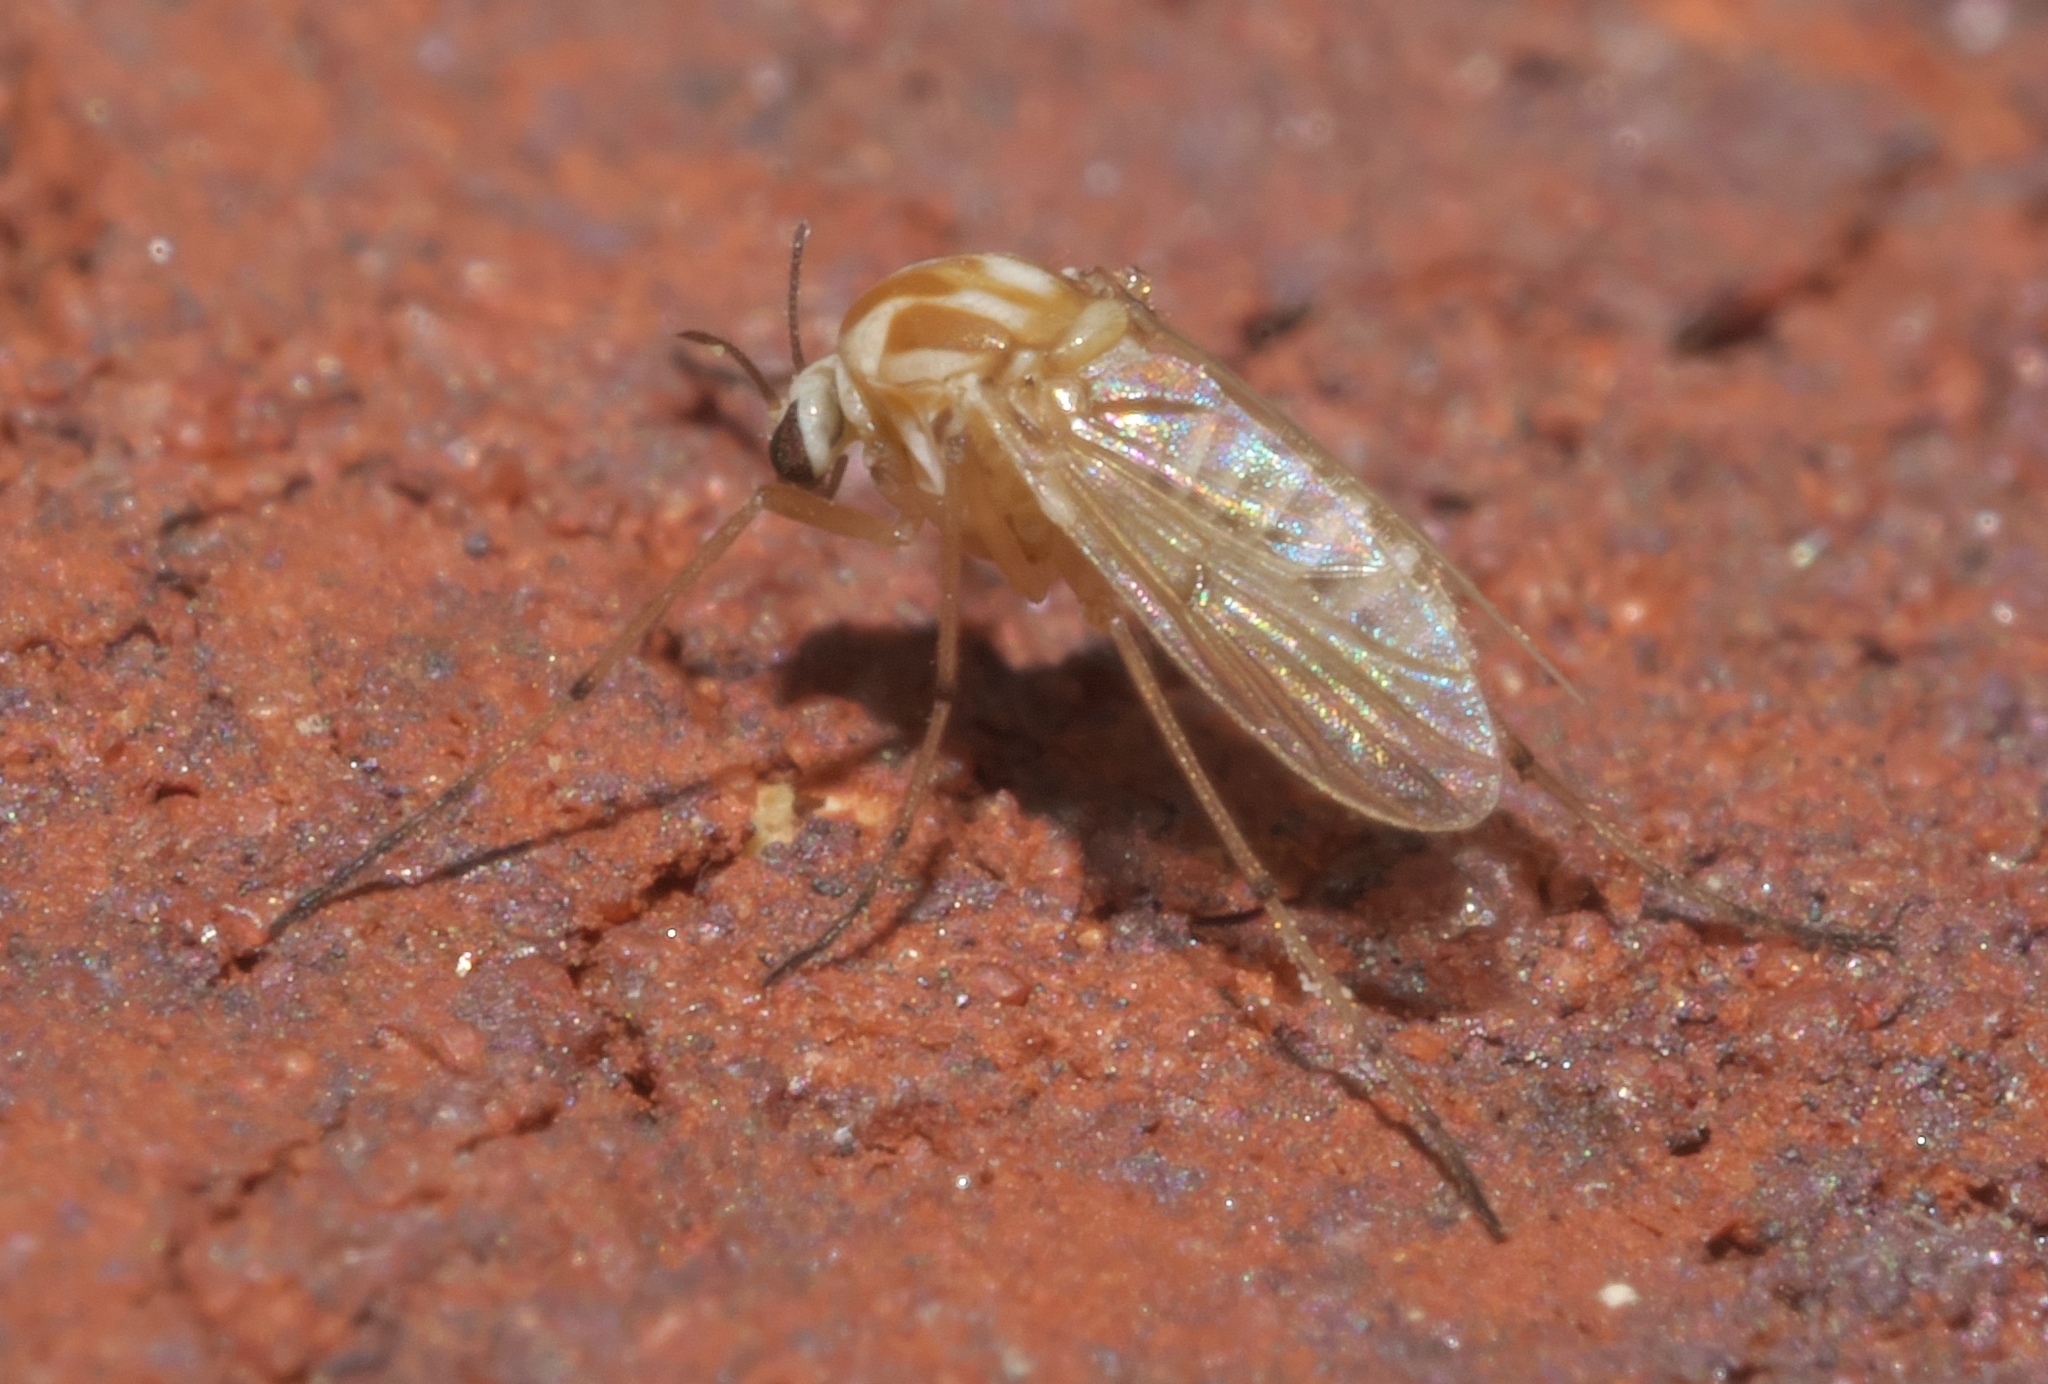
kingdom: Animalia
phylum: Arthropoda
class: Insecta
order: Diptera
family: Chironomidae
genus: Procladius
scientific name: Procladius bellus
